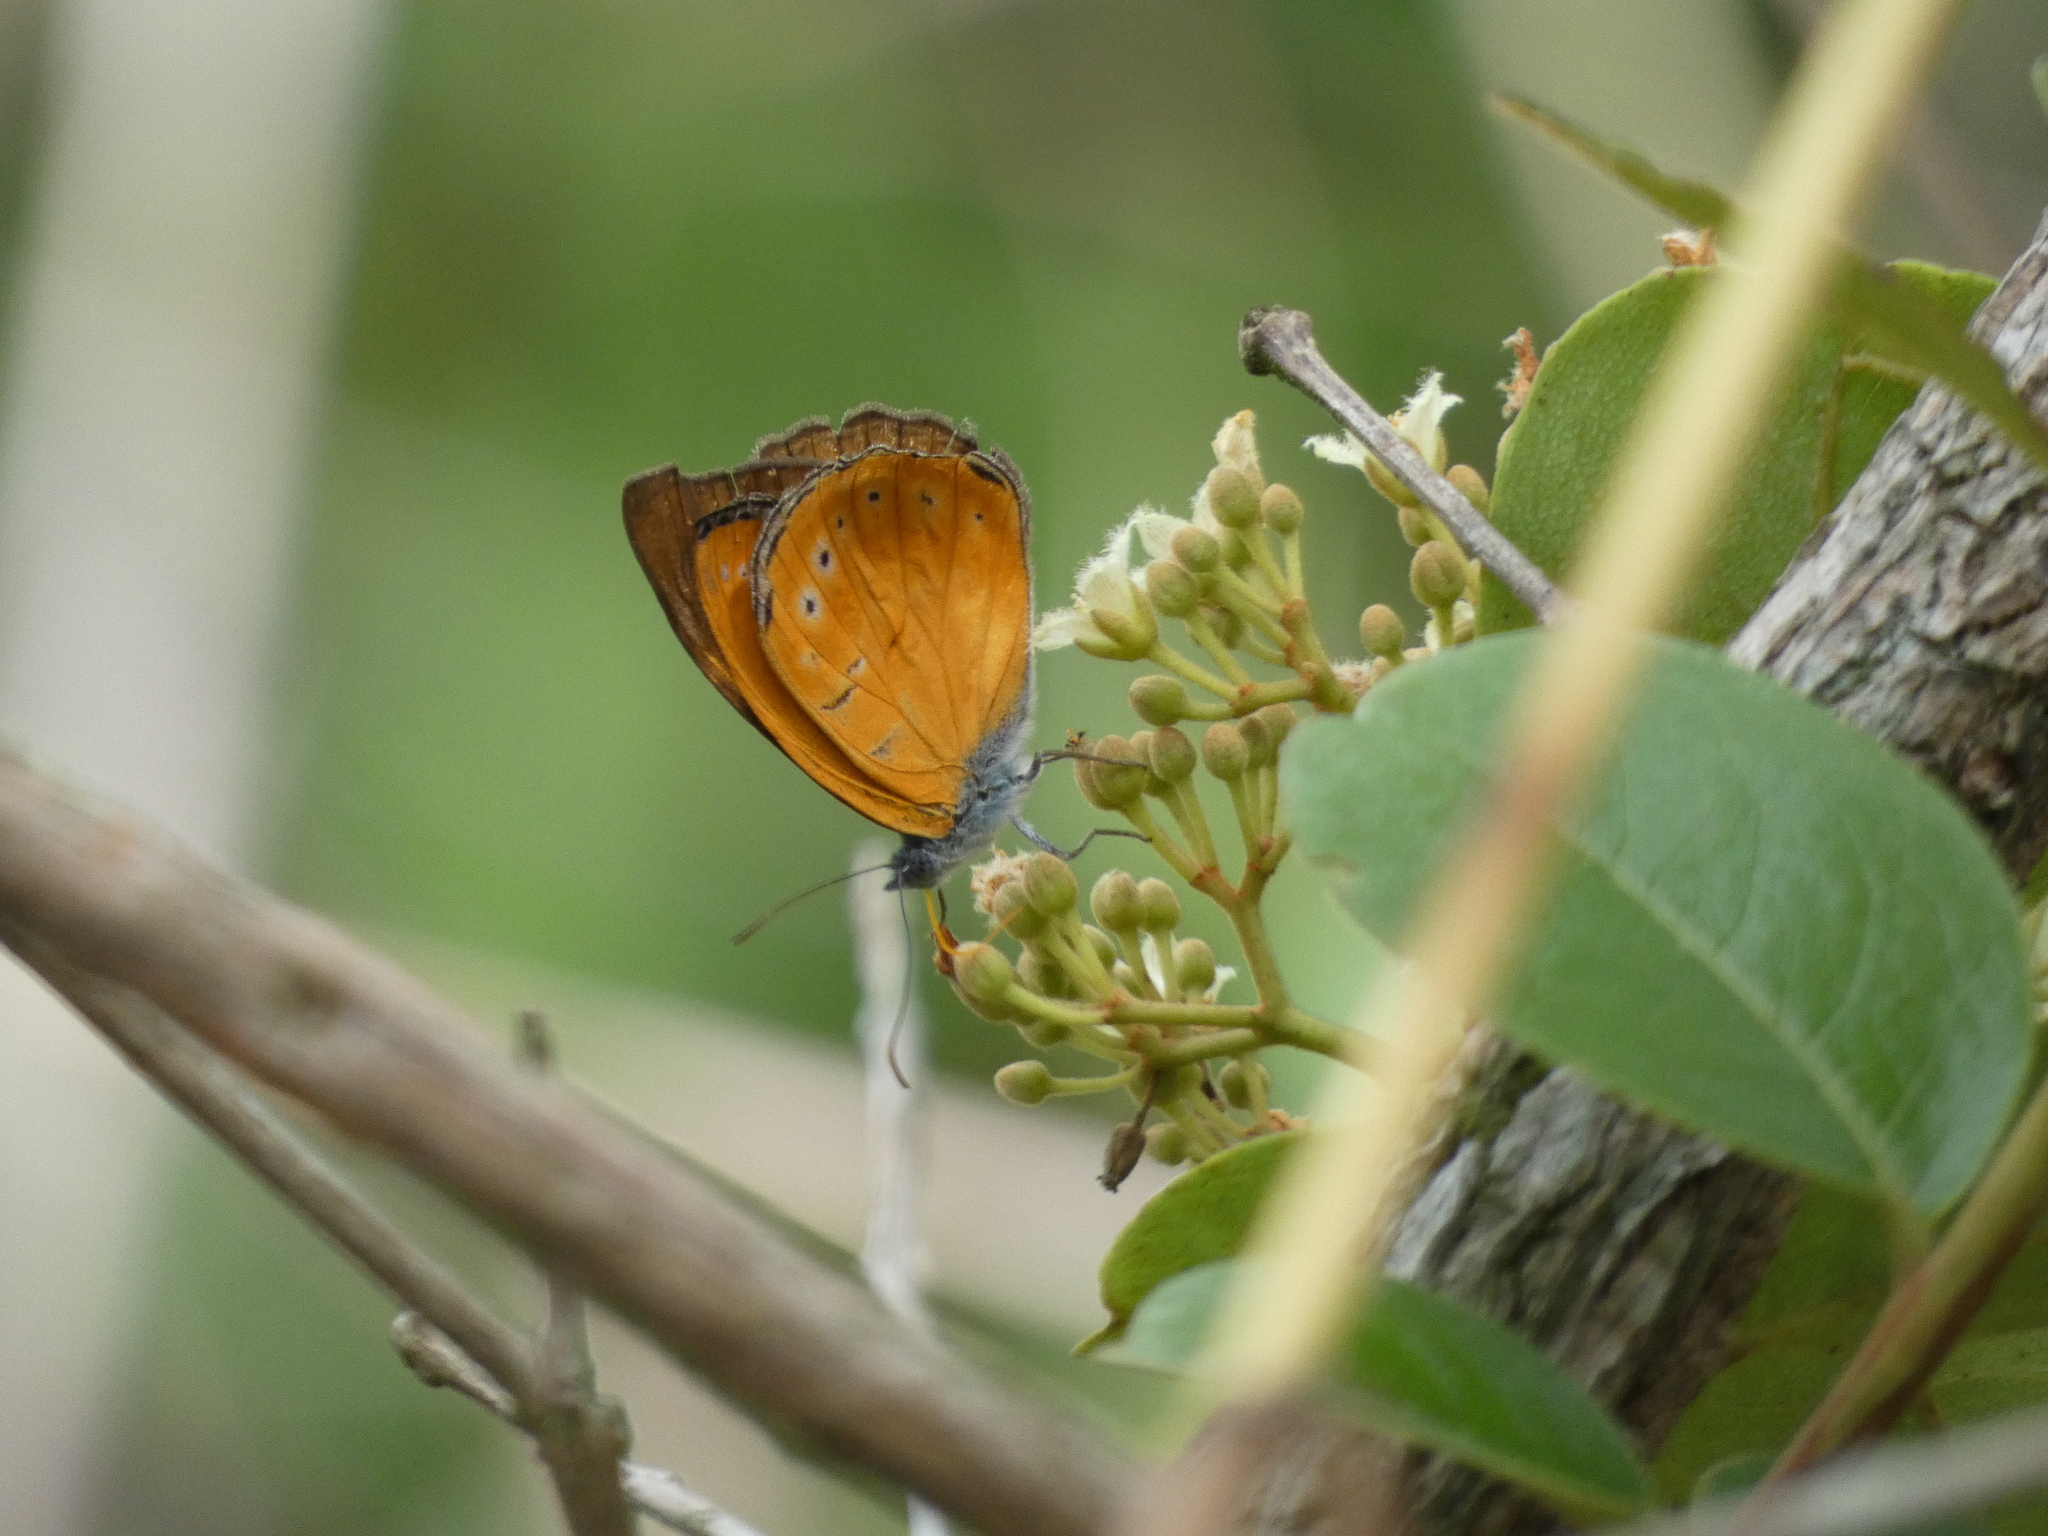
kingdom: Animalia
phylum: Arthropoda
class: Insecta
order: Lepidoptera
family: Nymphalidae
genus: Sevenia
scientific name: Sevenia
